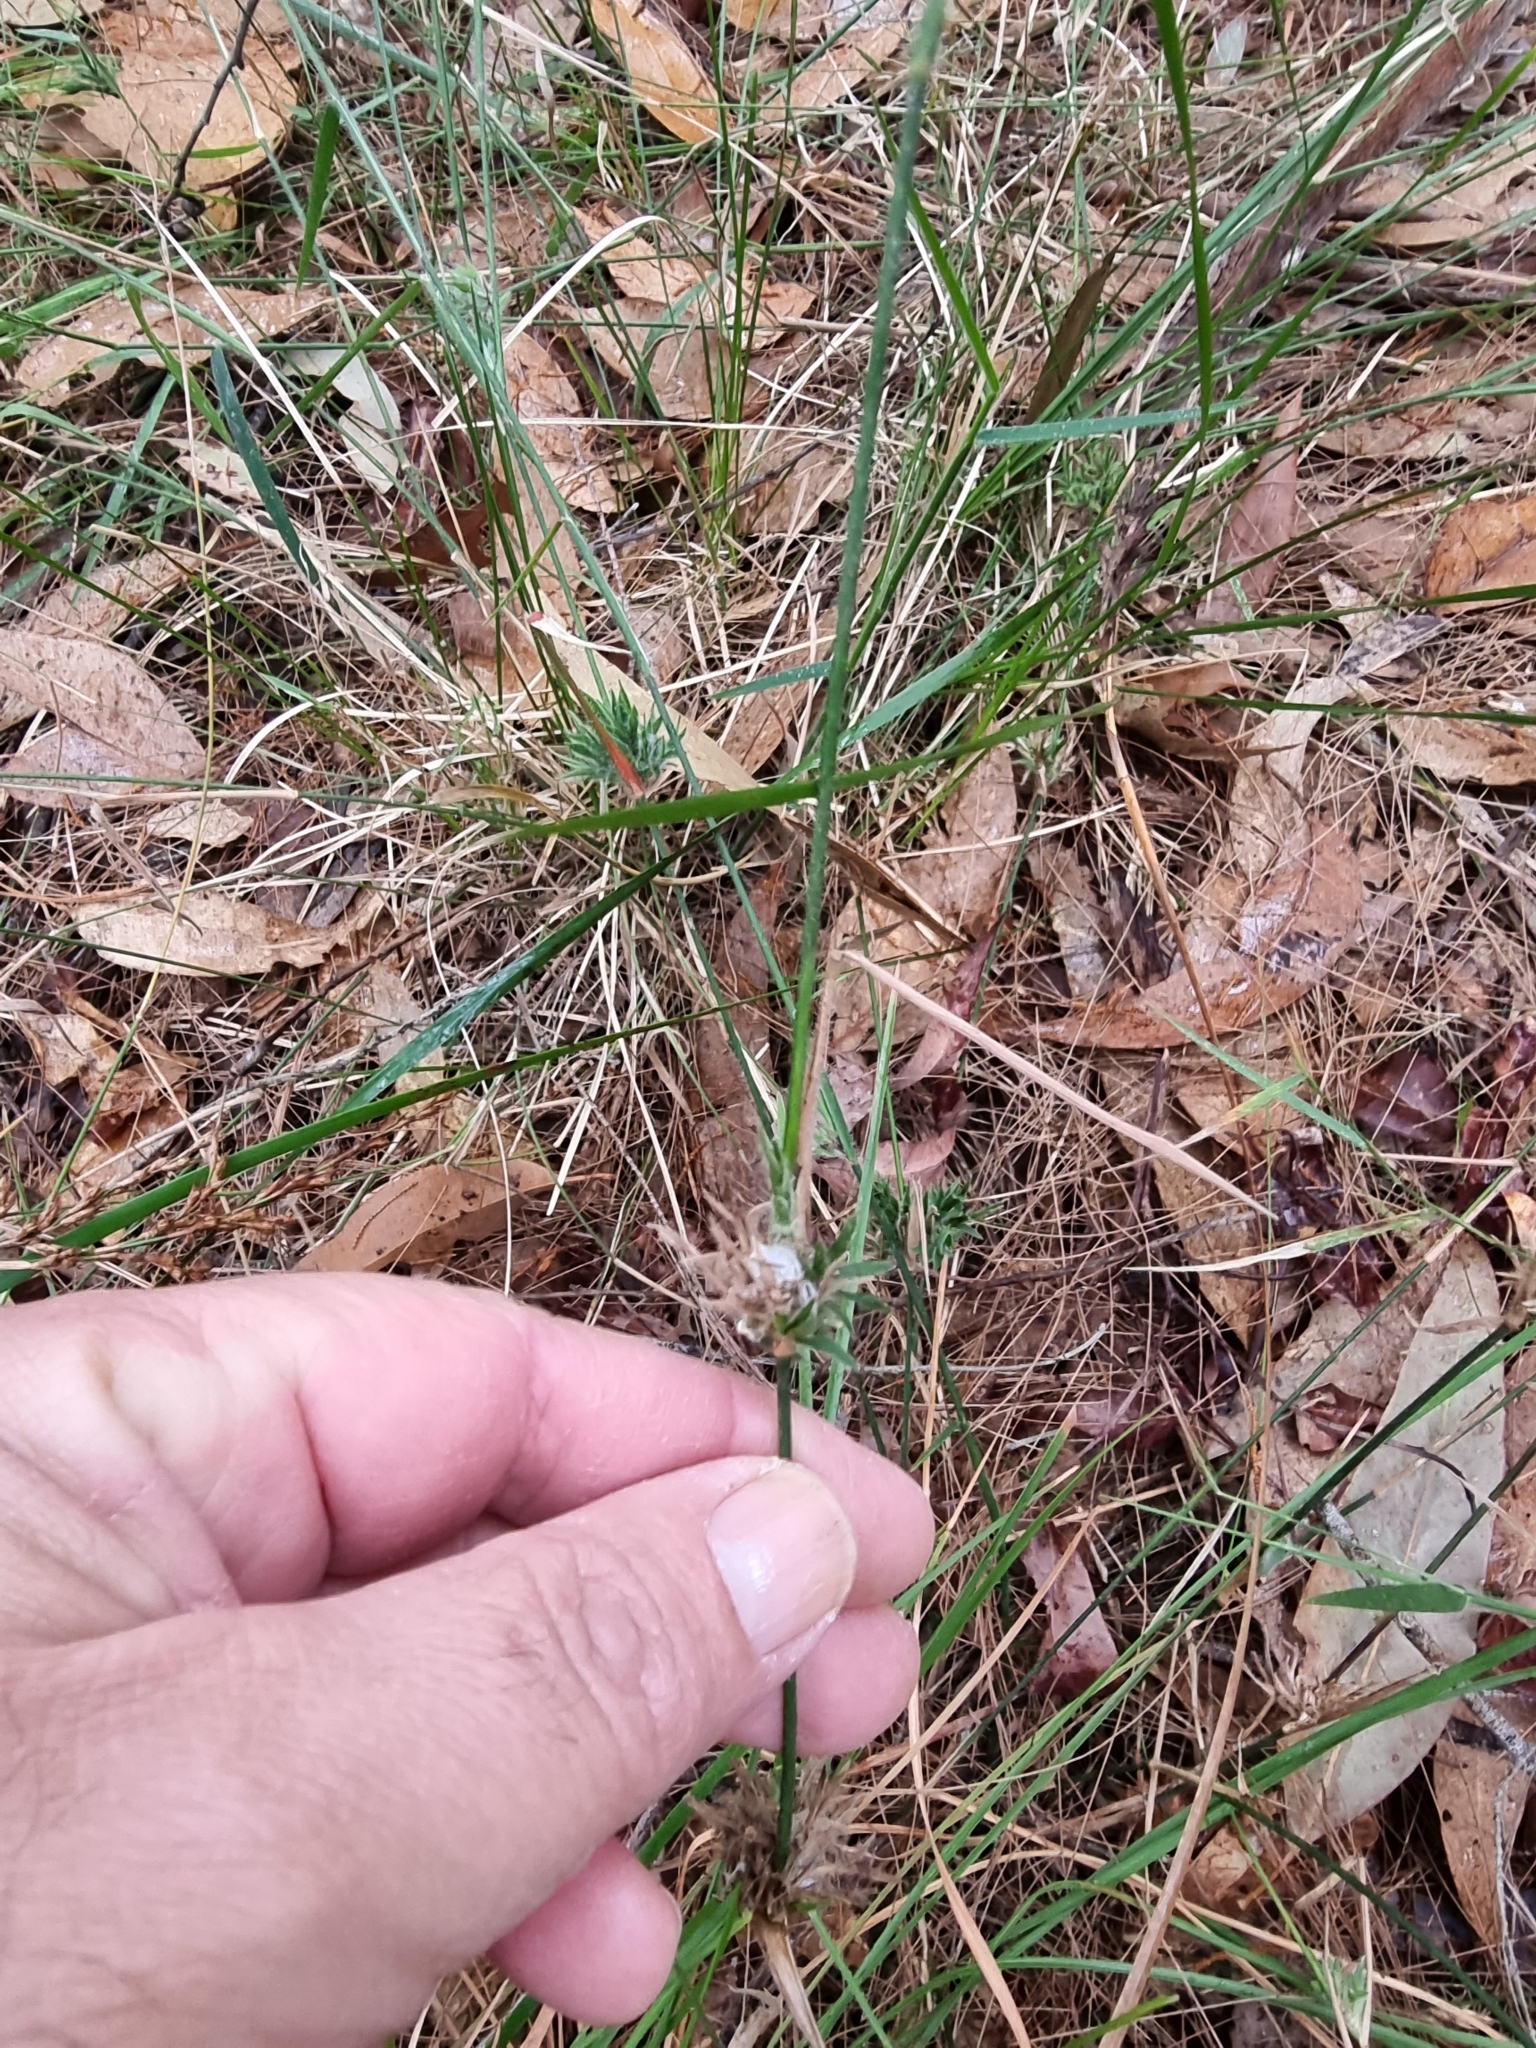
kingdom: Plantae
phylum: Tracheophyta
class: Liliopsida
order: Poales
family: Poaceae
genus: Entolasia
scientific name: Entolasia stricta
